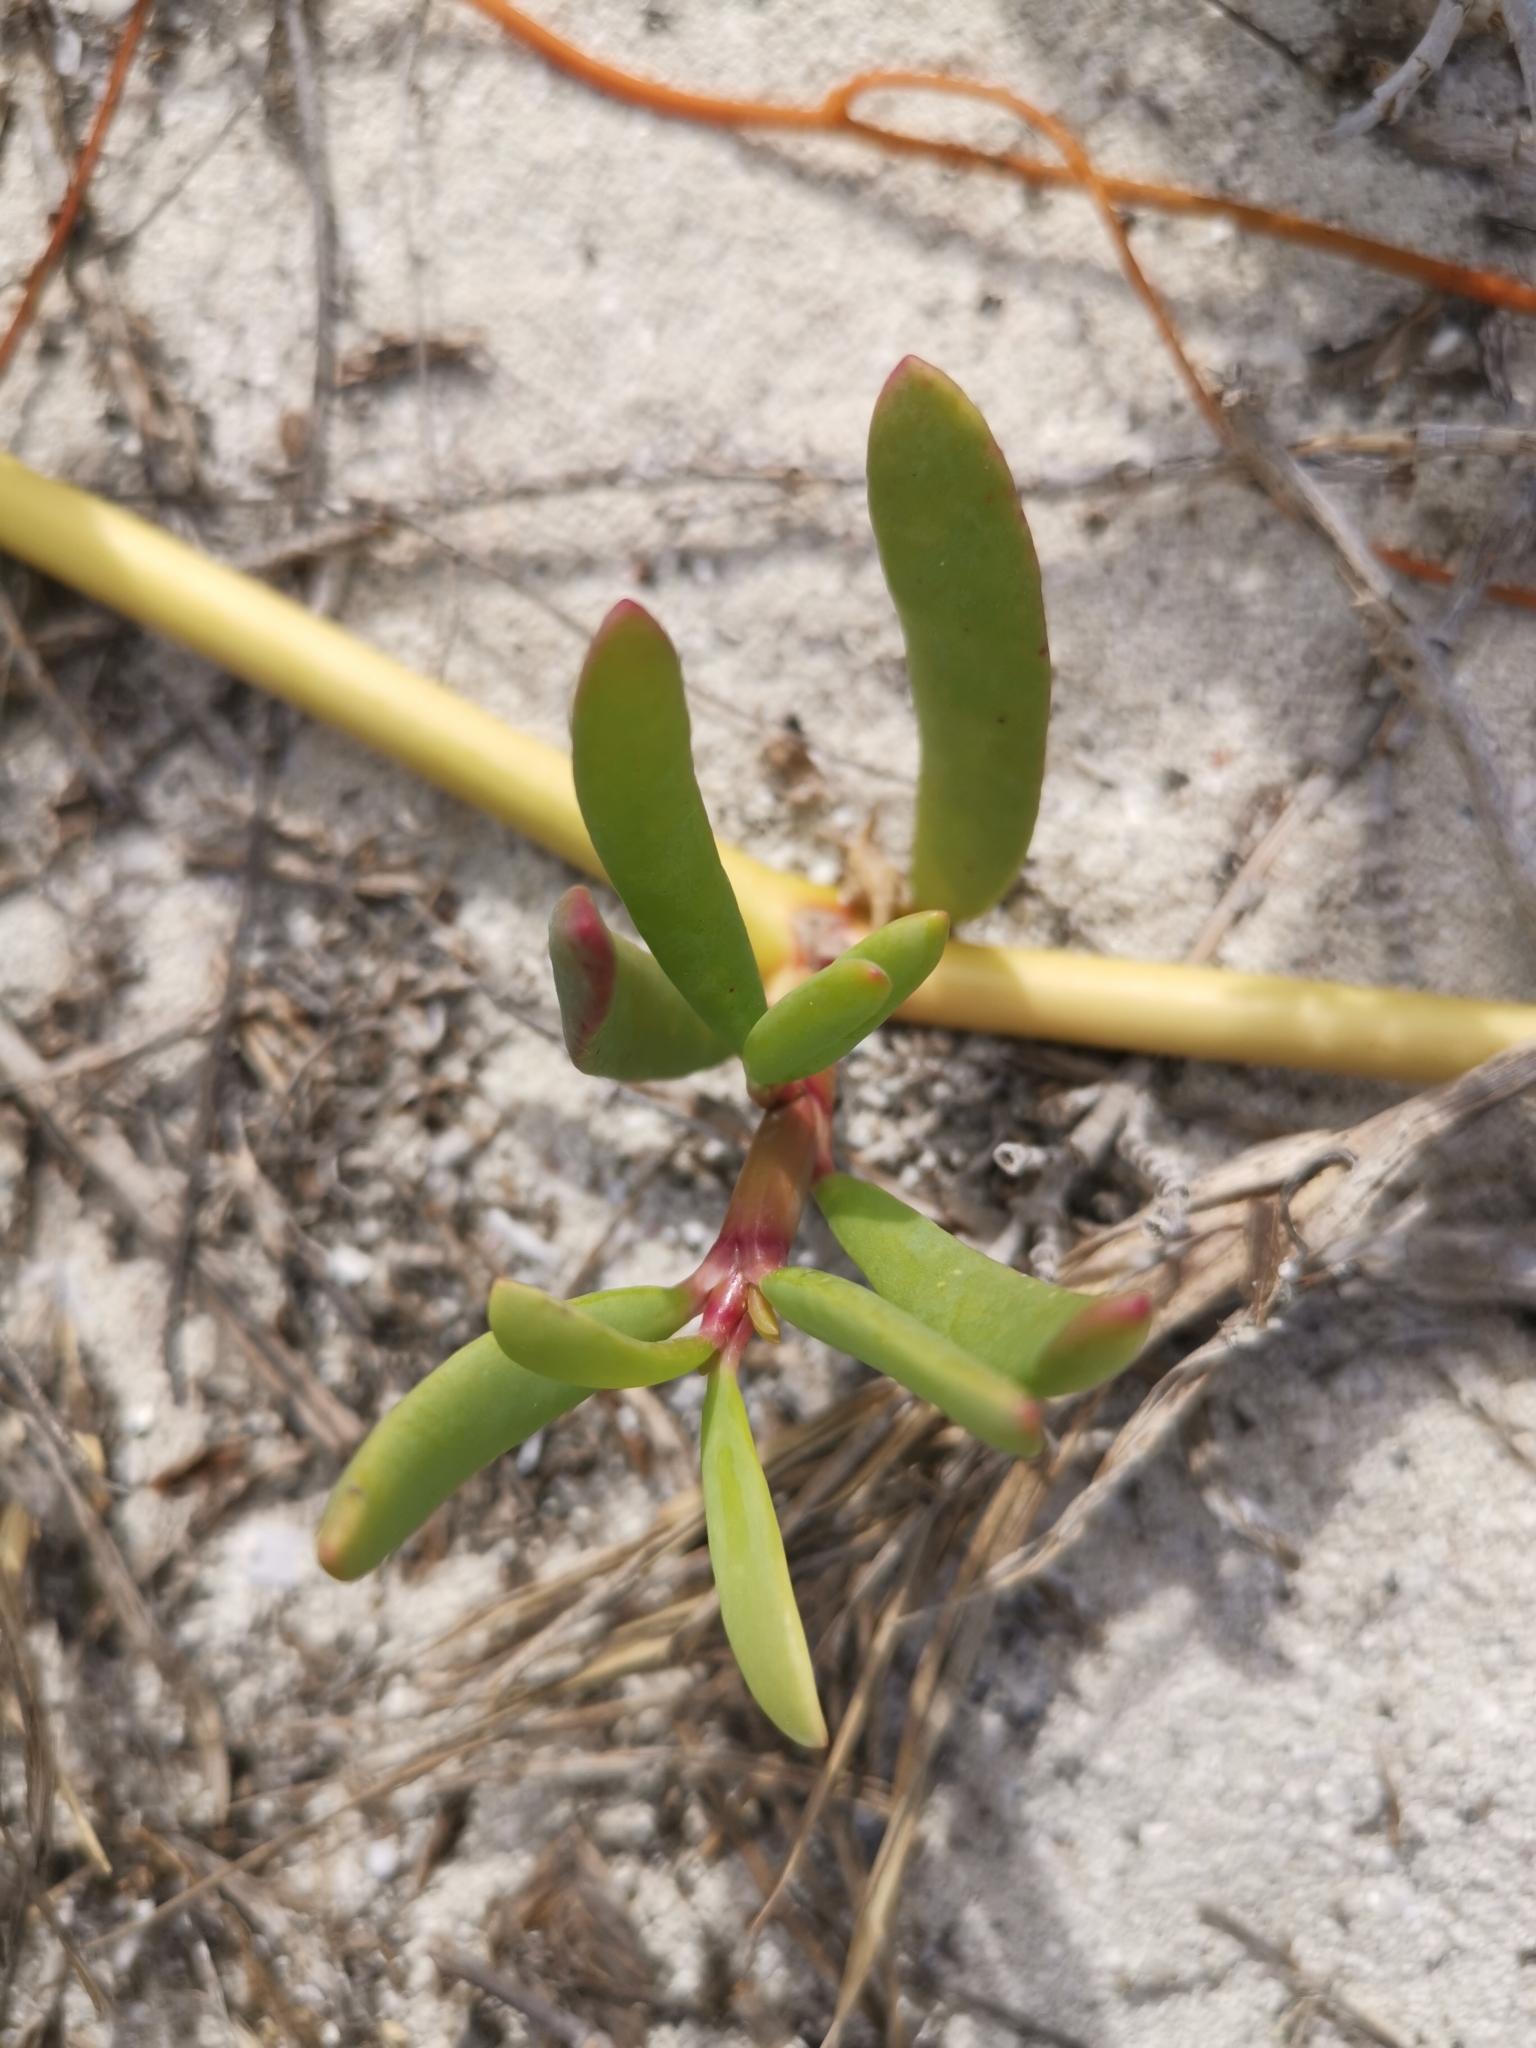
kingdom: Plantae
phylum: Tracheophyta
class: Magnoliopsida
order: Caryophyllales
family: Aizoaceae
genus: Sesuvium
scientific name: Sesuvium portulacastrum
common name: Sea-purslane
